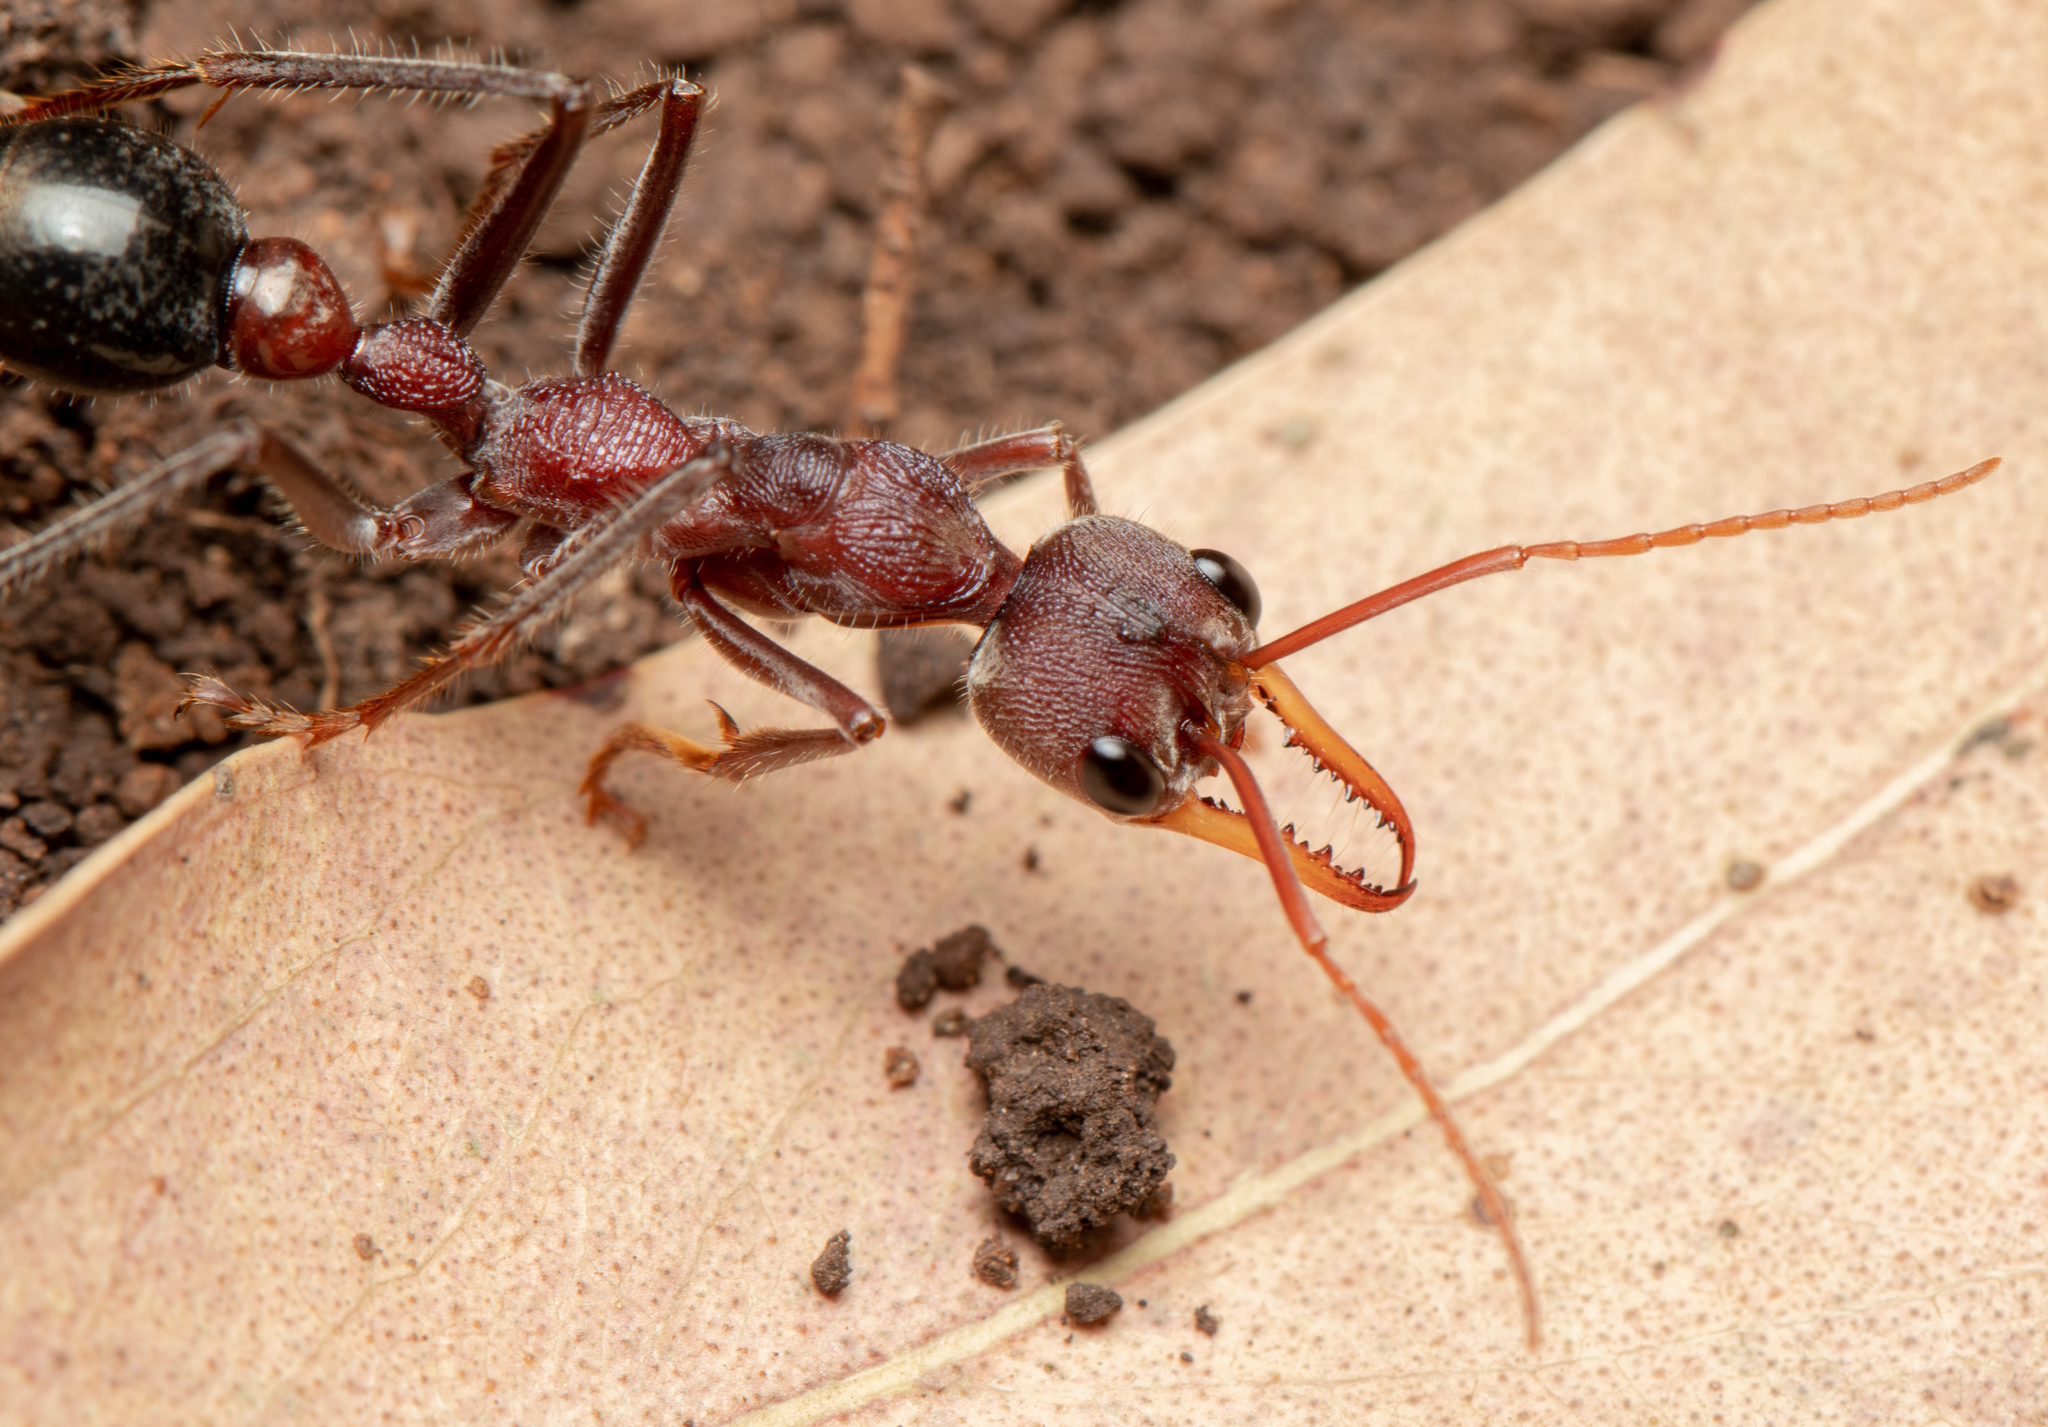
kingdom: Animalia
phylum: Arthropoda
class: Insecta
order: Hymenoptera
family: Formicidae
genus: Myrmecia
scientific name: Myrmecia flavicoma
